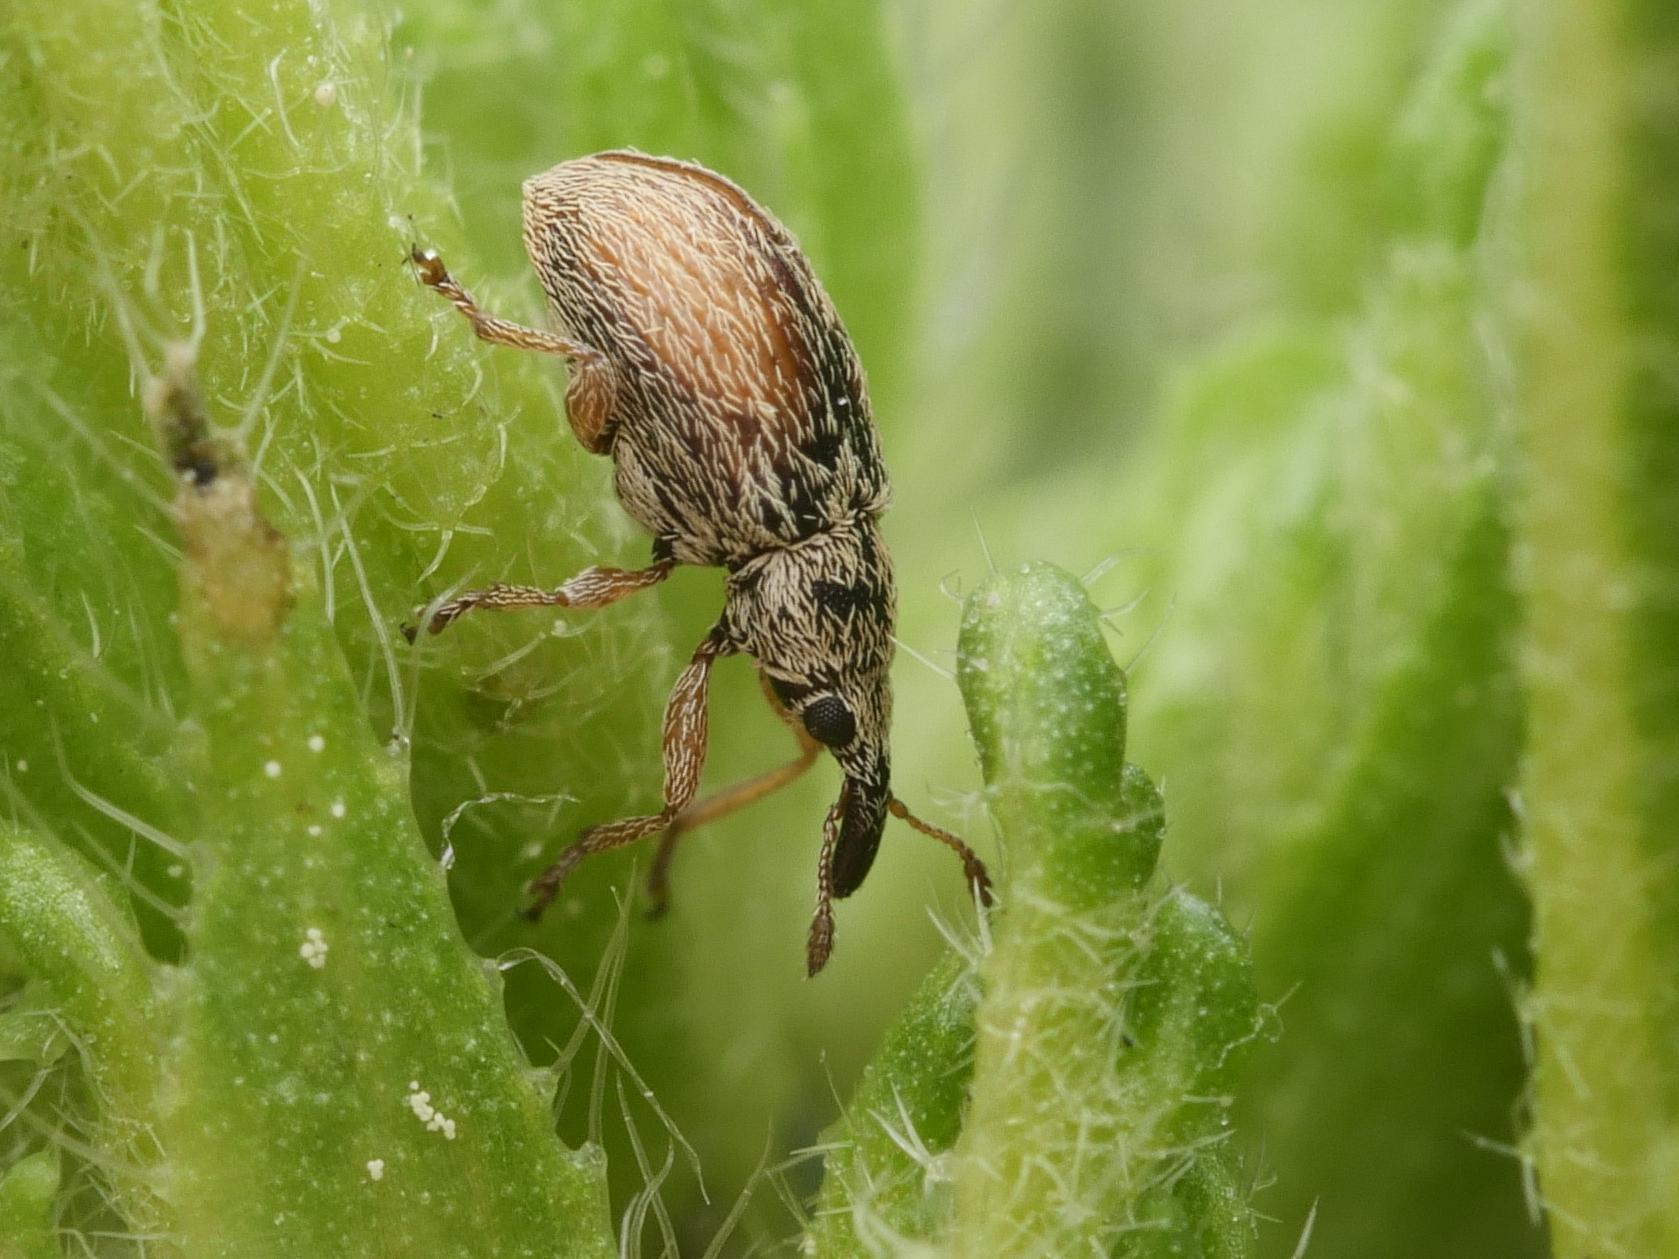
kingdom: Animalia
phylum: Arthropoda
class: Insecta
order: Coleoptera
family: Apionidae
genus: Malvapion
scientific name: Malvapion malvae
